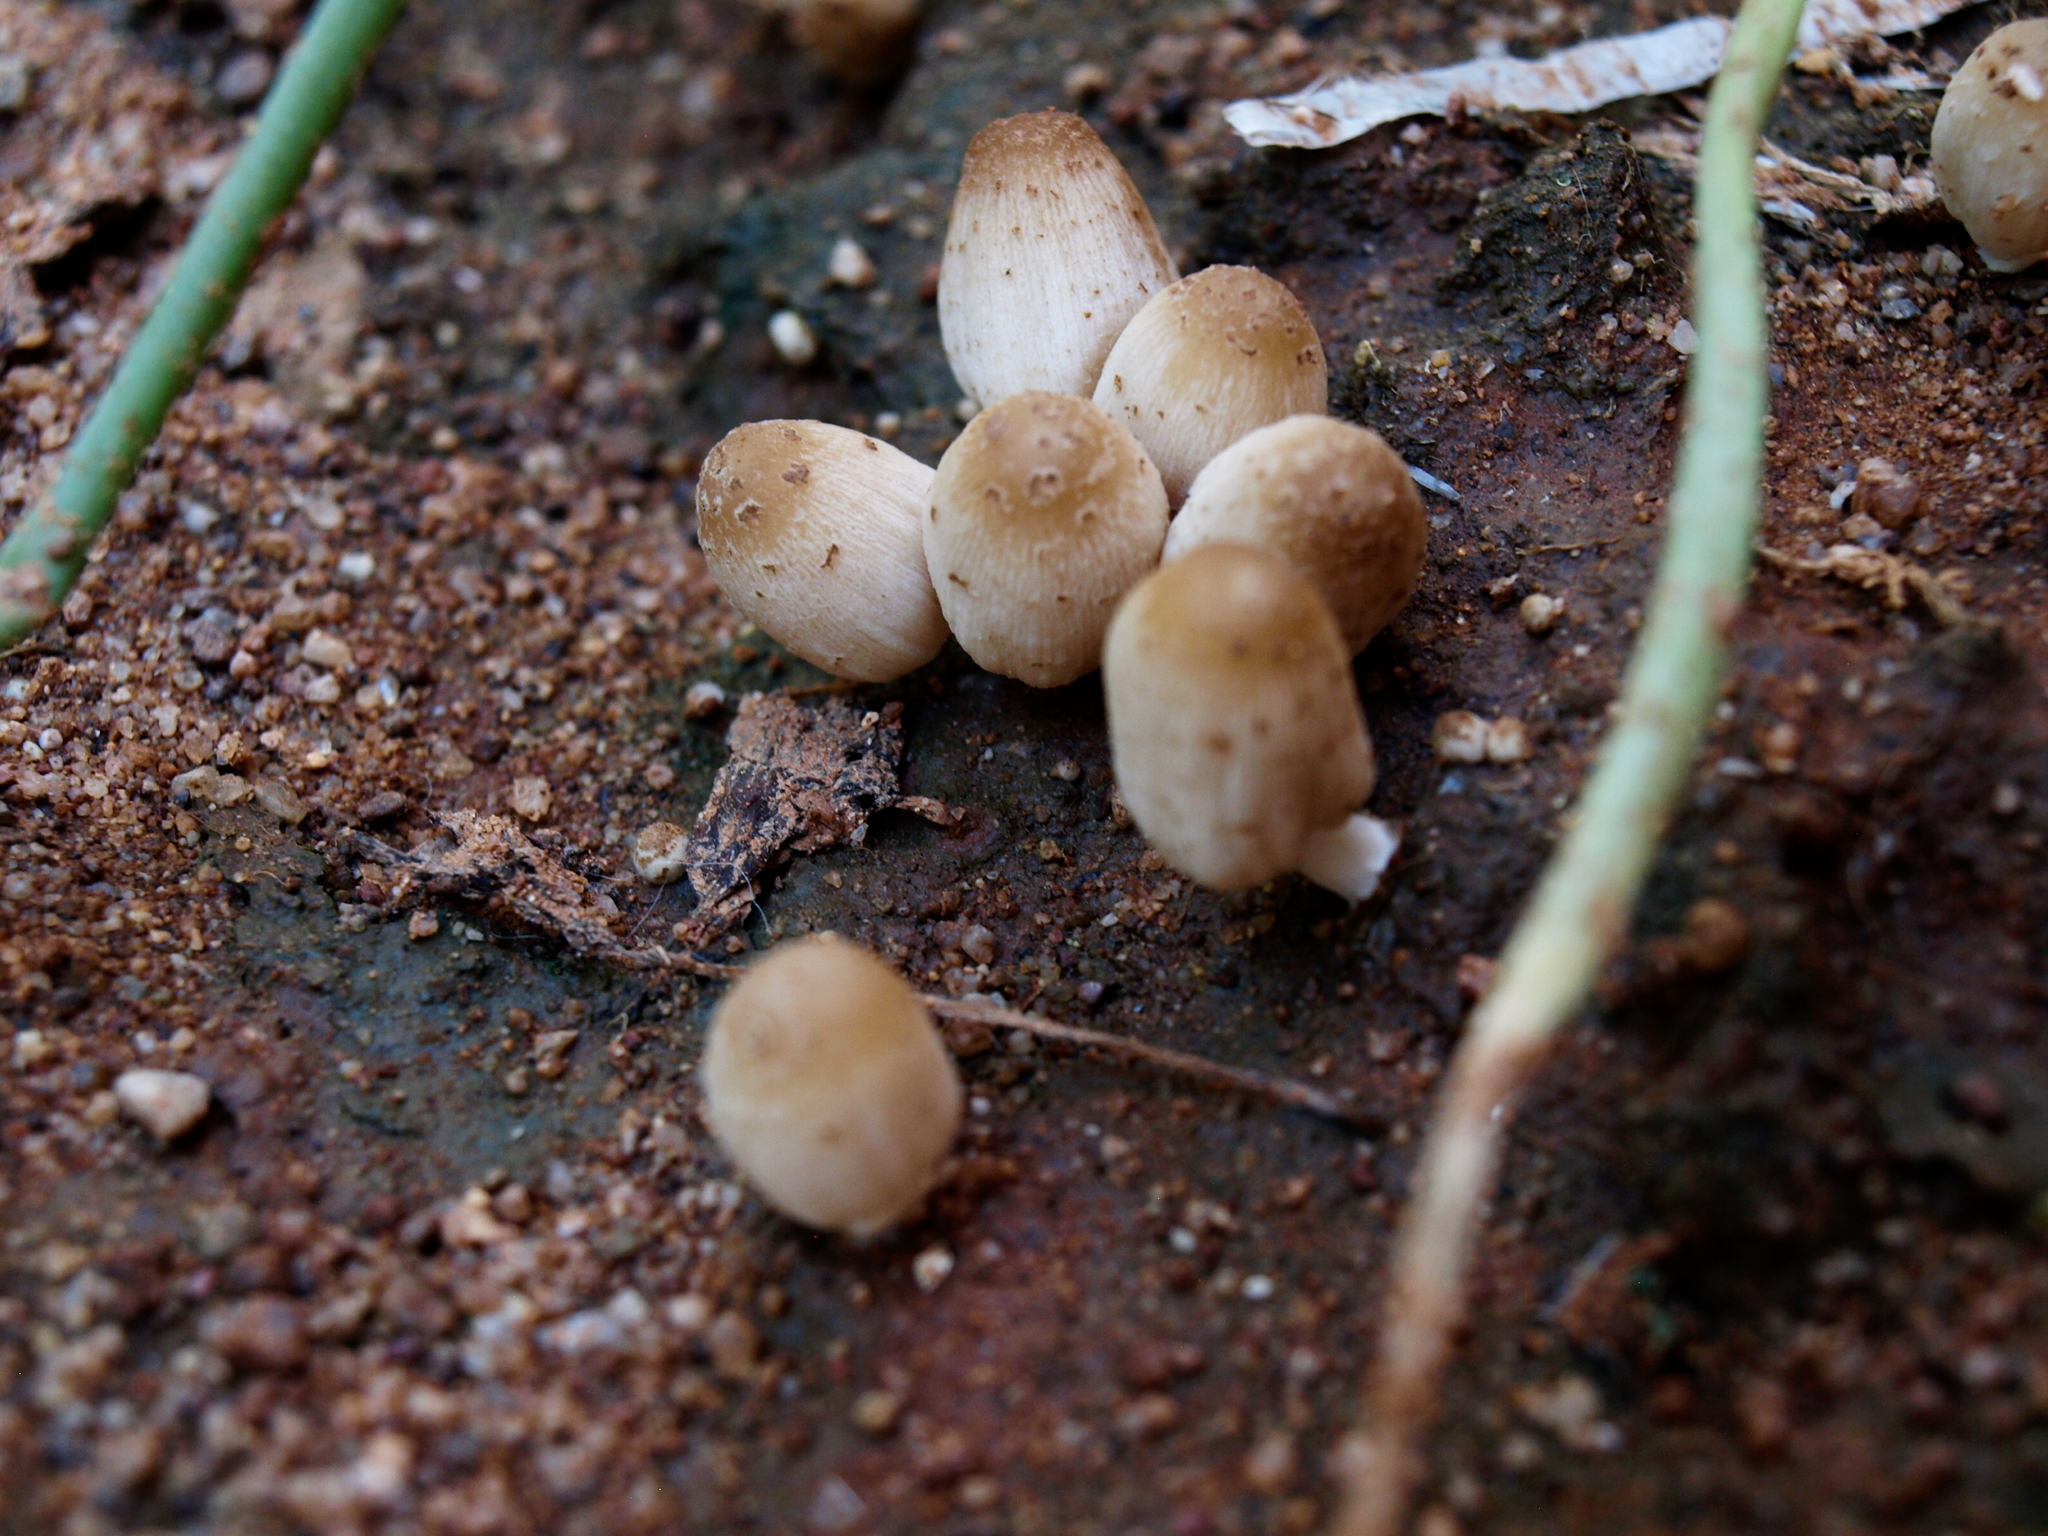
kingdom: Fungi
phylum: Basidiomycota
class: Agaricomycetes
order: Agaricales
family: Psathyrellaceae
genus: Coprinellus
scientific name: Coprinellus micaceus
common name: Glistening ink-cap
